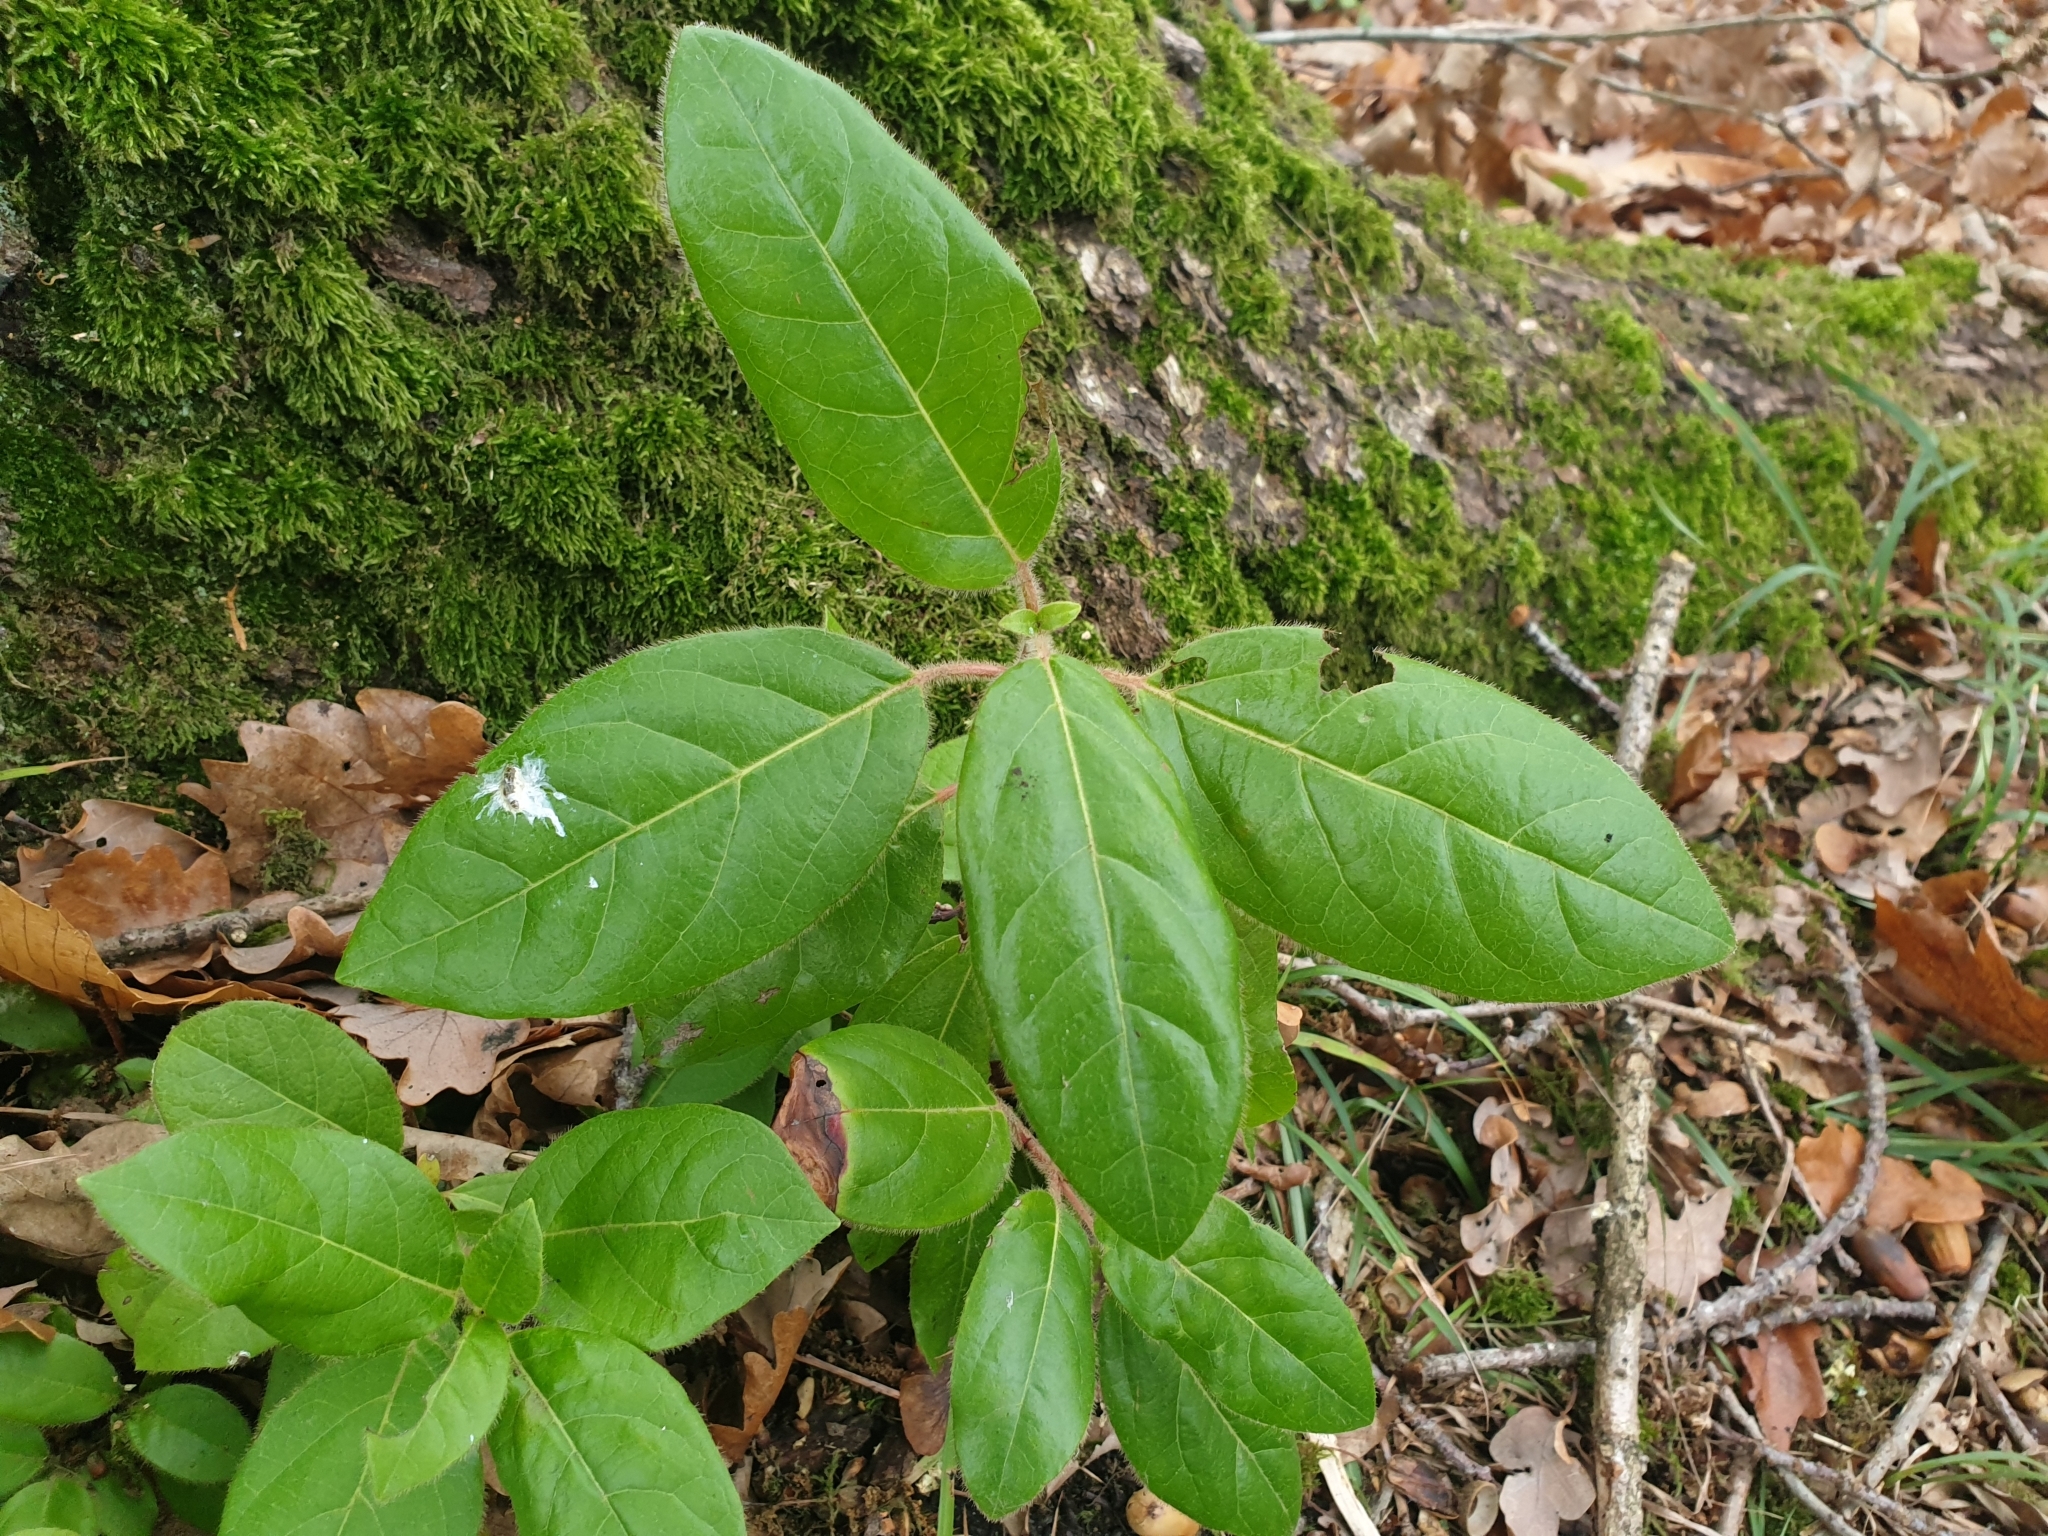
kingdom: Plantae
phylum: Tracheophyta
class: Magnoliopsida
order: Dipsacales
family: Viburnaceae
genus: Viburnum
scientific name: Viburnum tinus
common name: Laurustinus
